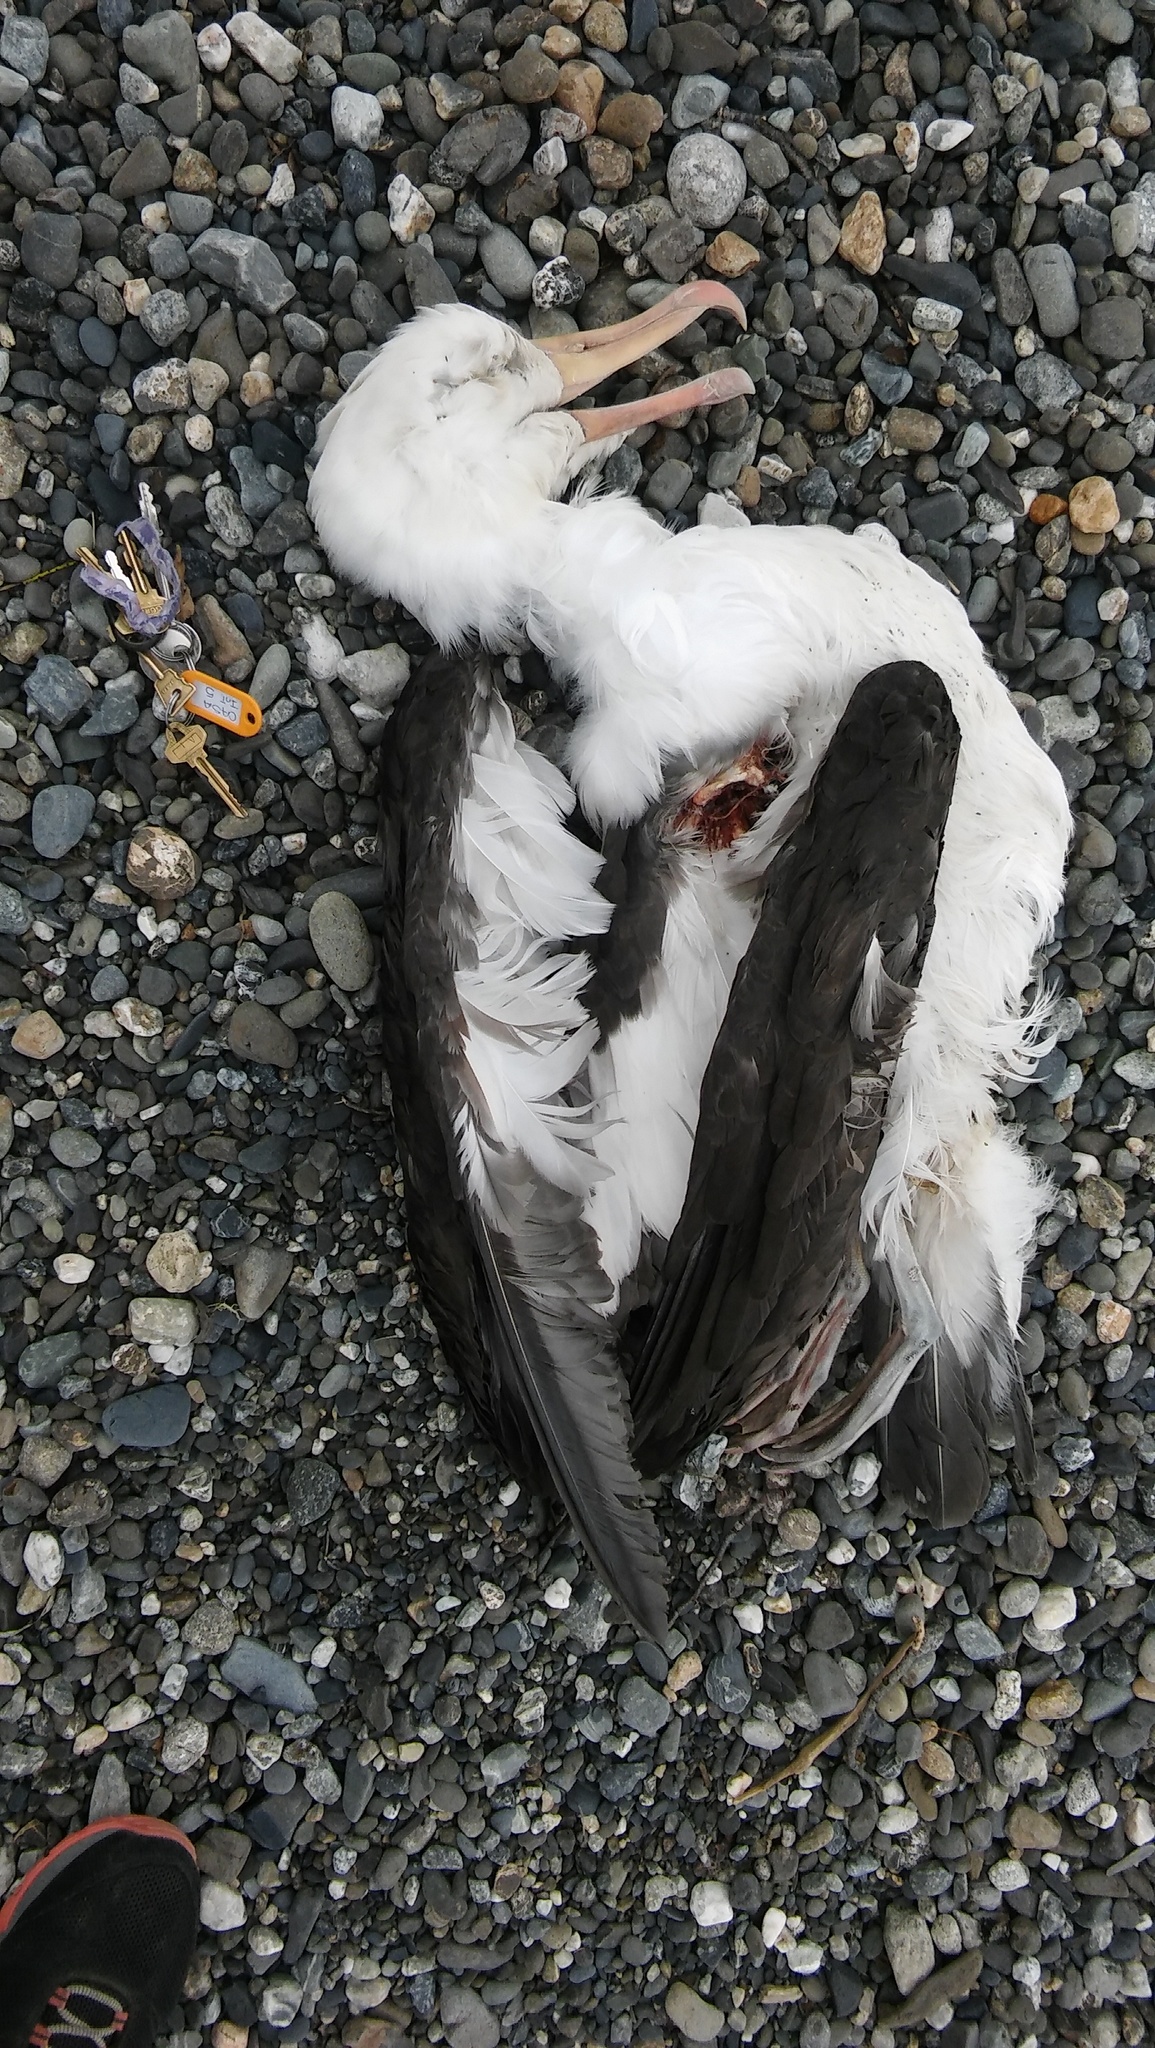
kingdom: Animalia
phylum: Chordata
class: Aves
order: Procellariiformes
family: Diomedeidae
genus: Thalassarche
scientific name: Thalassarche melanophris
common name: Black-browed albatross
